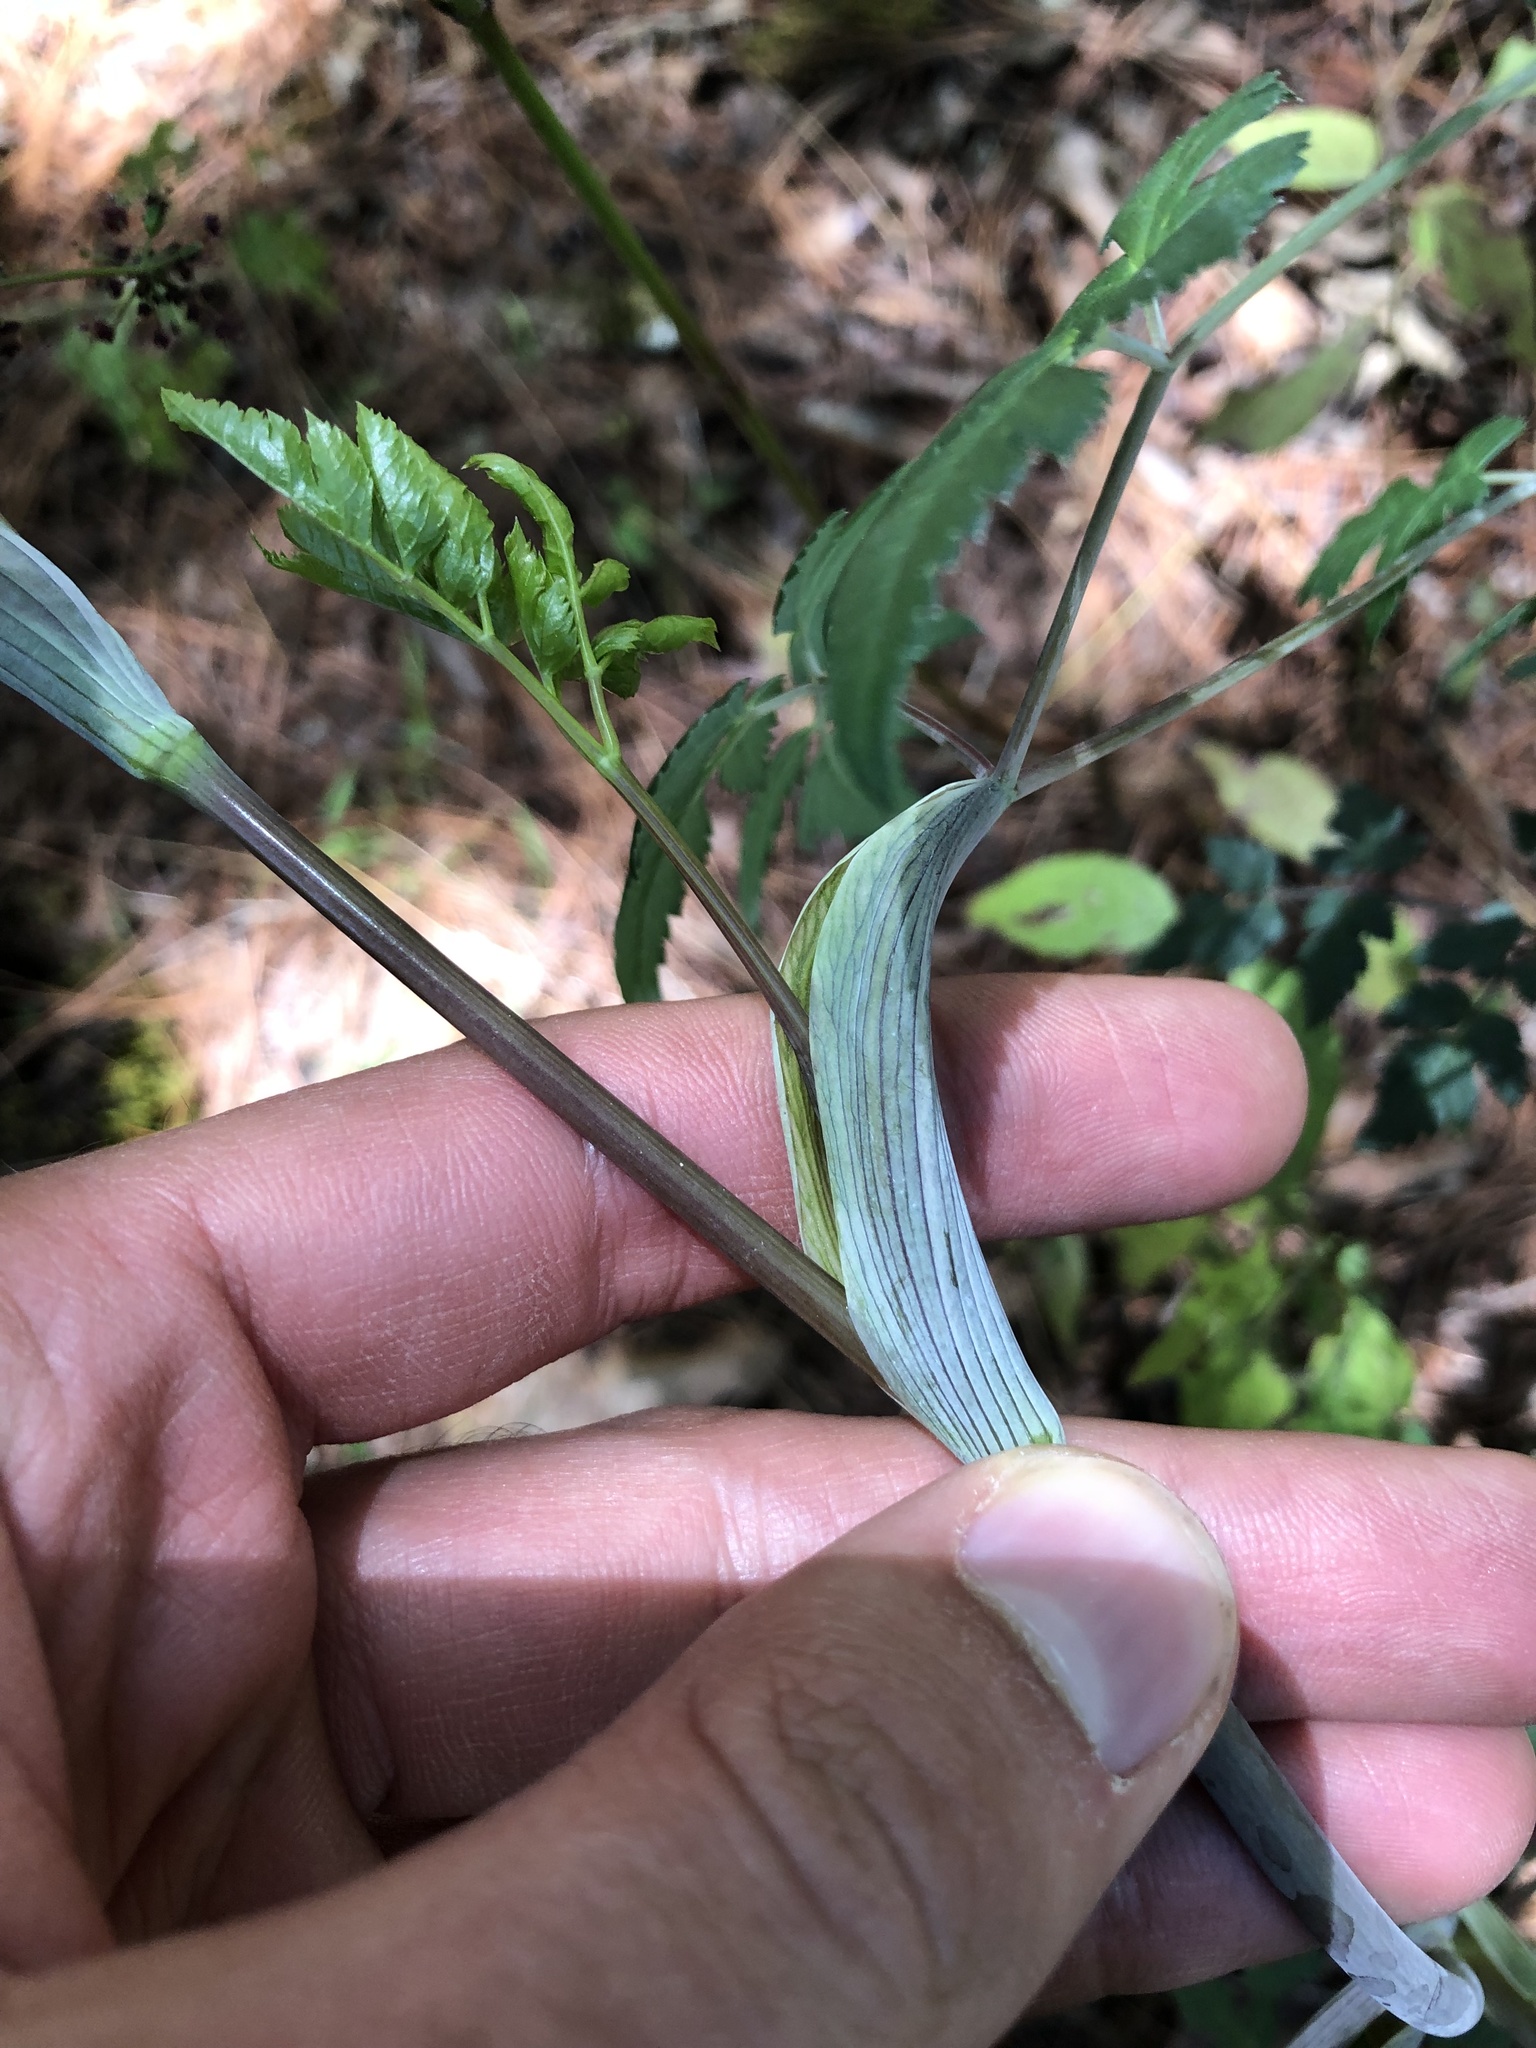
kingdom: Plantae
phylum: Tracheophyta
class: Magnoliopsida
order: Apiales
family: Apiaceae
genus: Arracacia
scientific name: Arracacia bracteata
